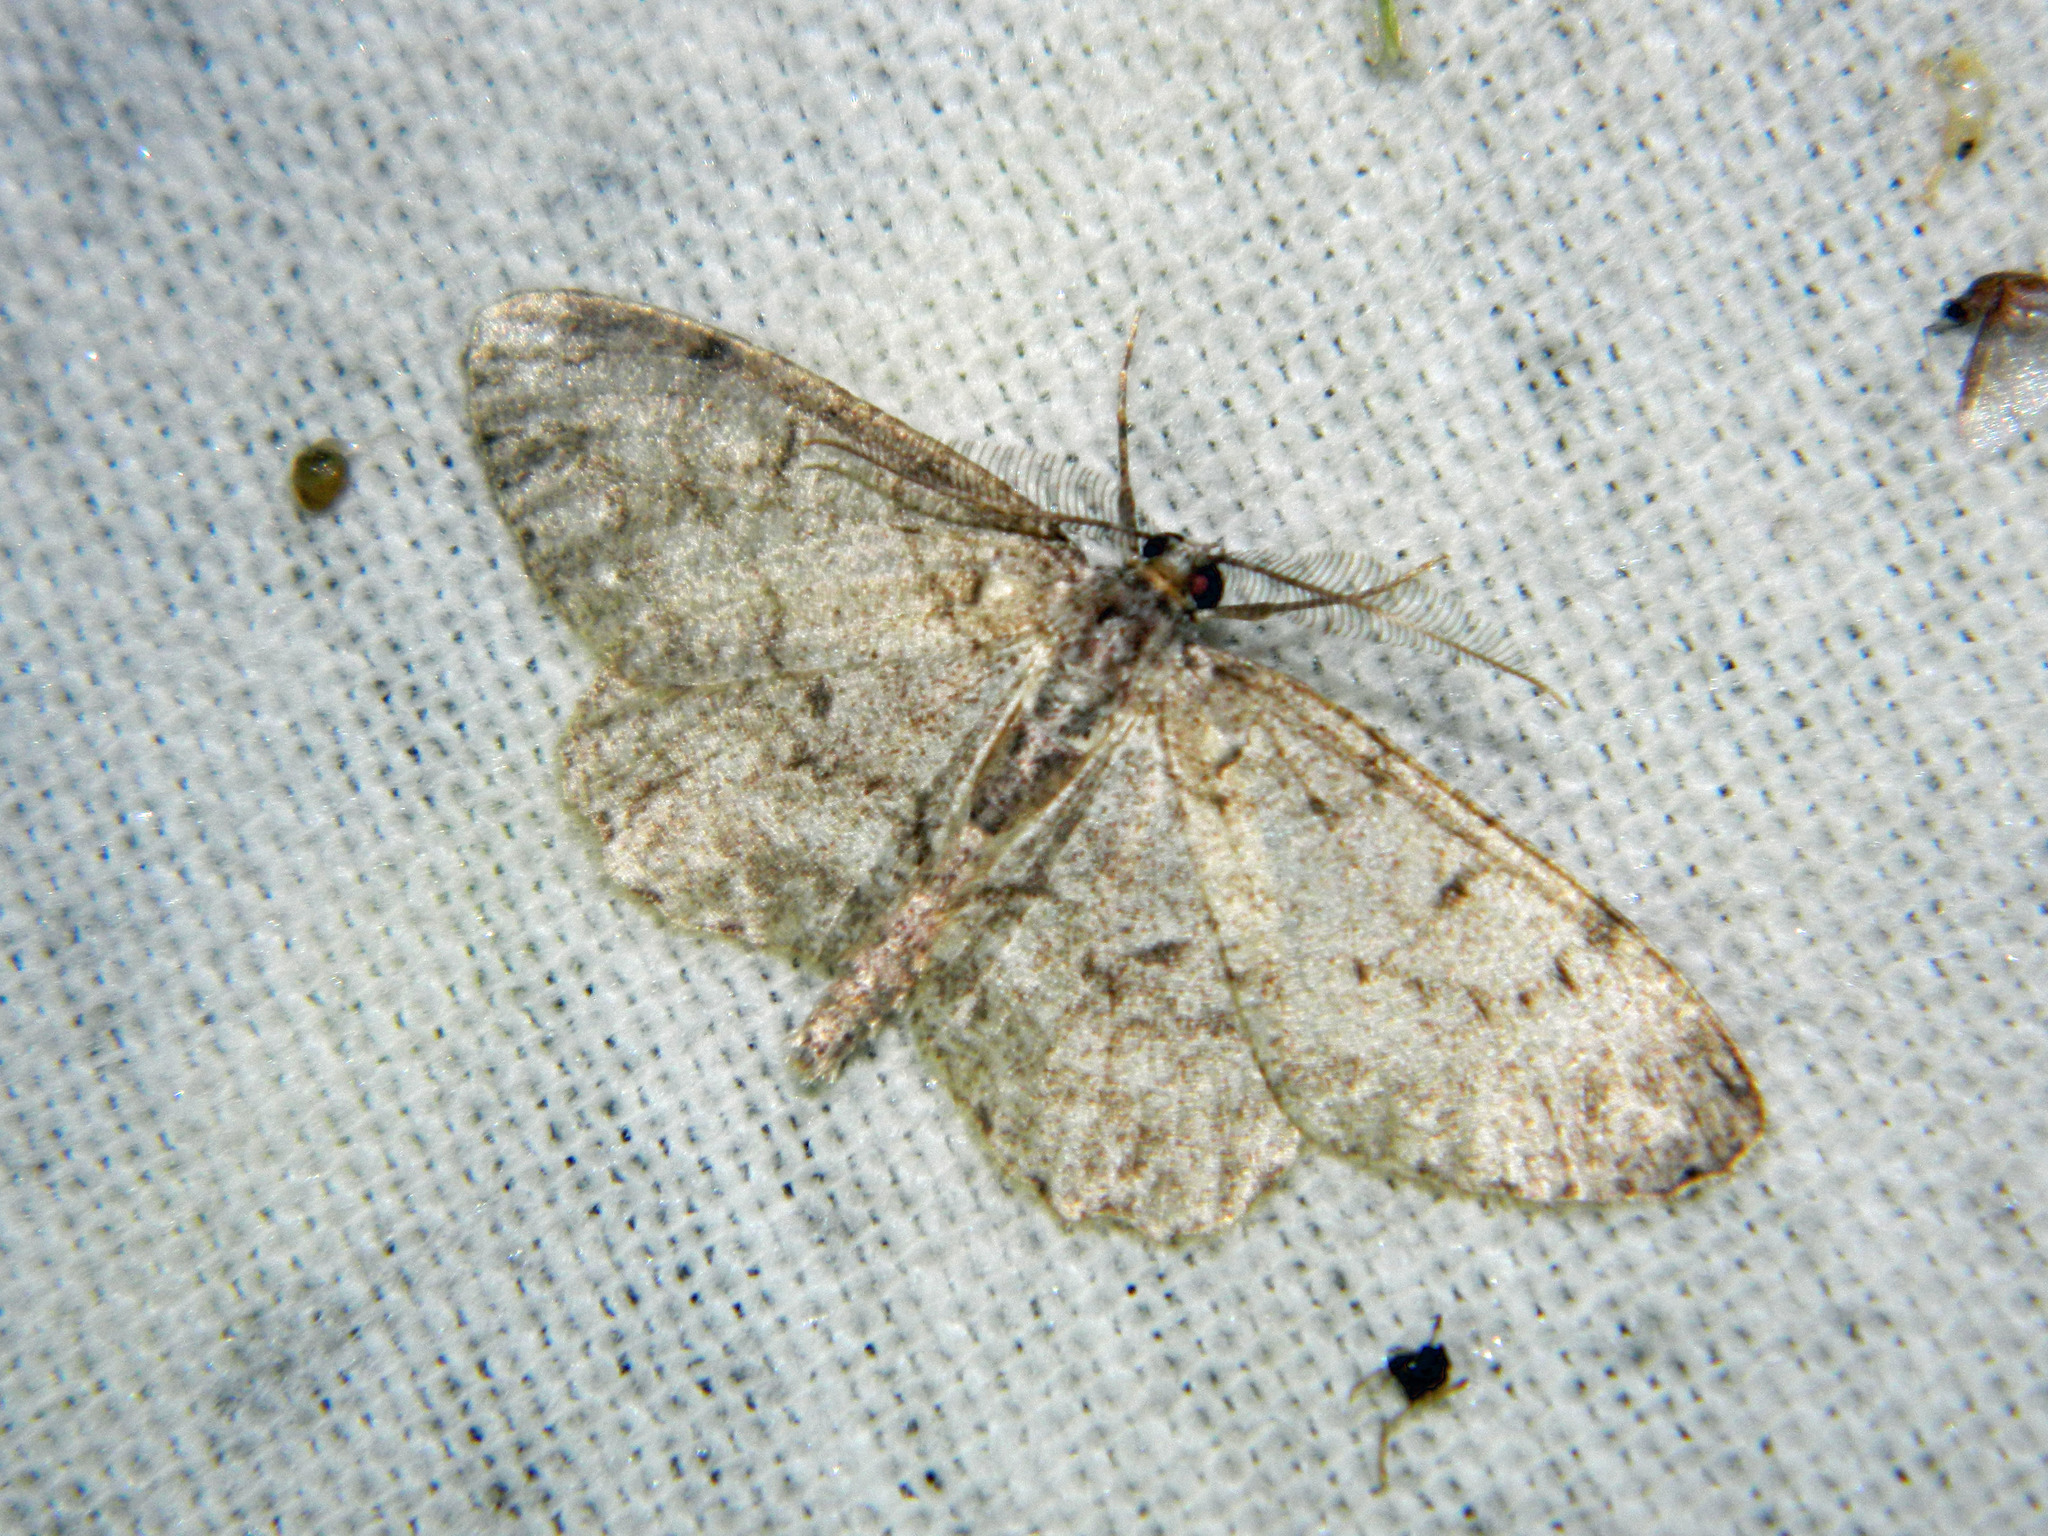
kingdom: Animalia
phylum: Arthropoda
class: Insecta
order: Lepidoptera
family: Geometridae
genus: Protoboarmia
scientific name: Protoboarmia porcelaria
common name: Porcelain gray
